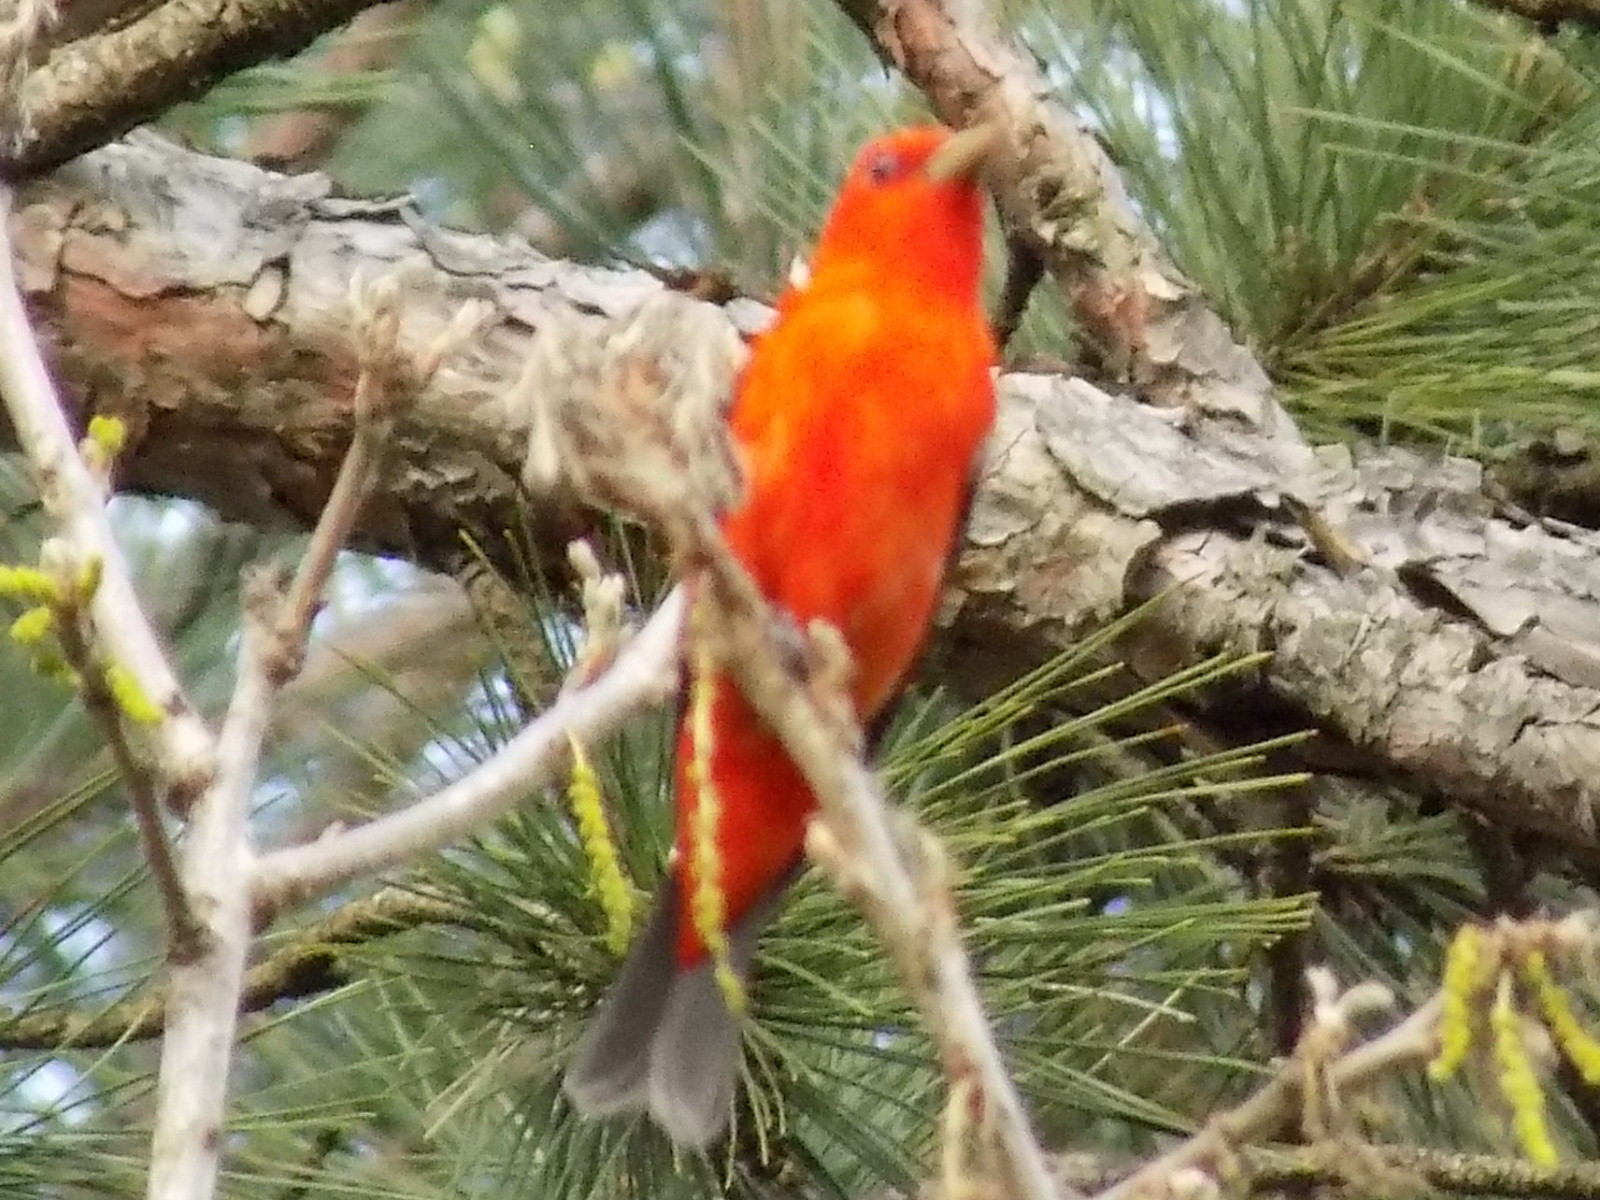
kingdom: Animalia
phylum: Chordata
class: Aves
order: Passeriformes
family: Cardinalidae
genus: Piranga
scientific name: Piranga olivacea
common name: Scarlet tanager
